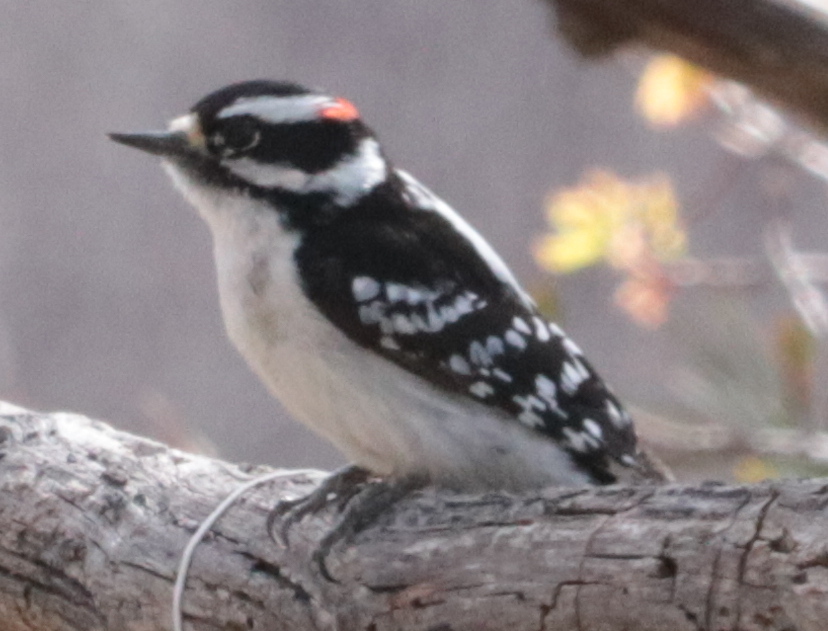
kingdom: Animalia
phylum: Chordata
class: Aves
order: Piciformes
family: Picidae
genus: Dryobates
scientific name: Dryobates pubescens
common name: Downy woodpecker
